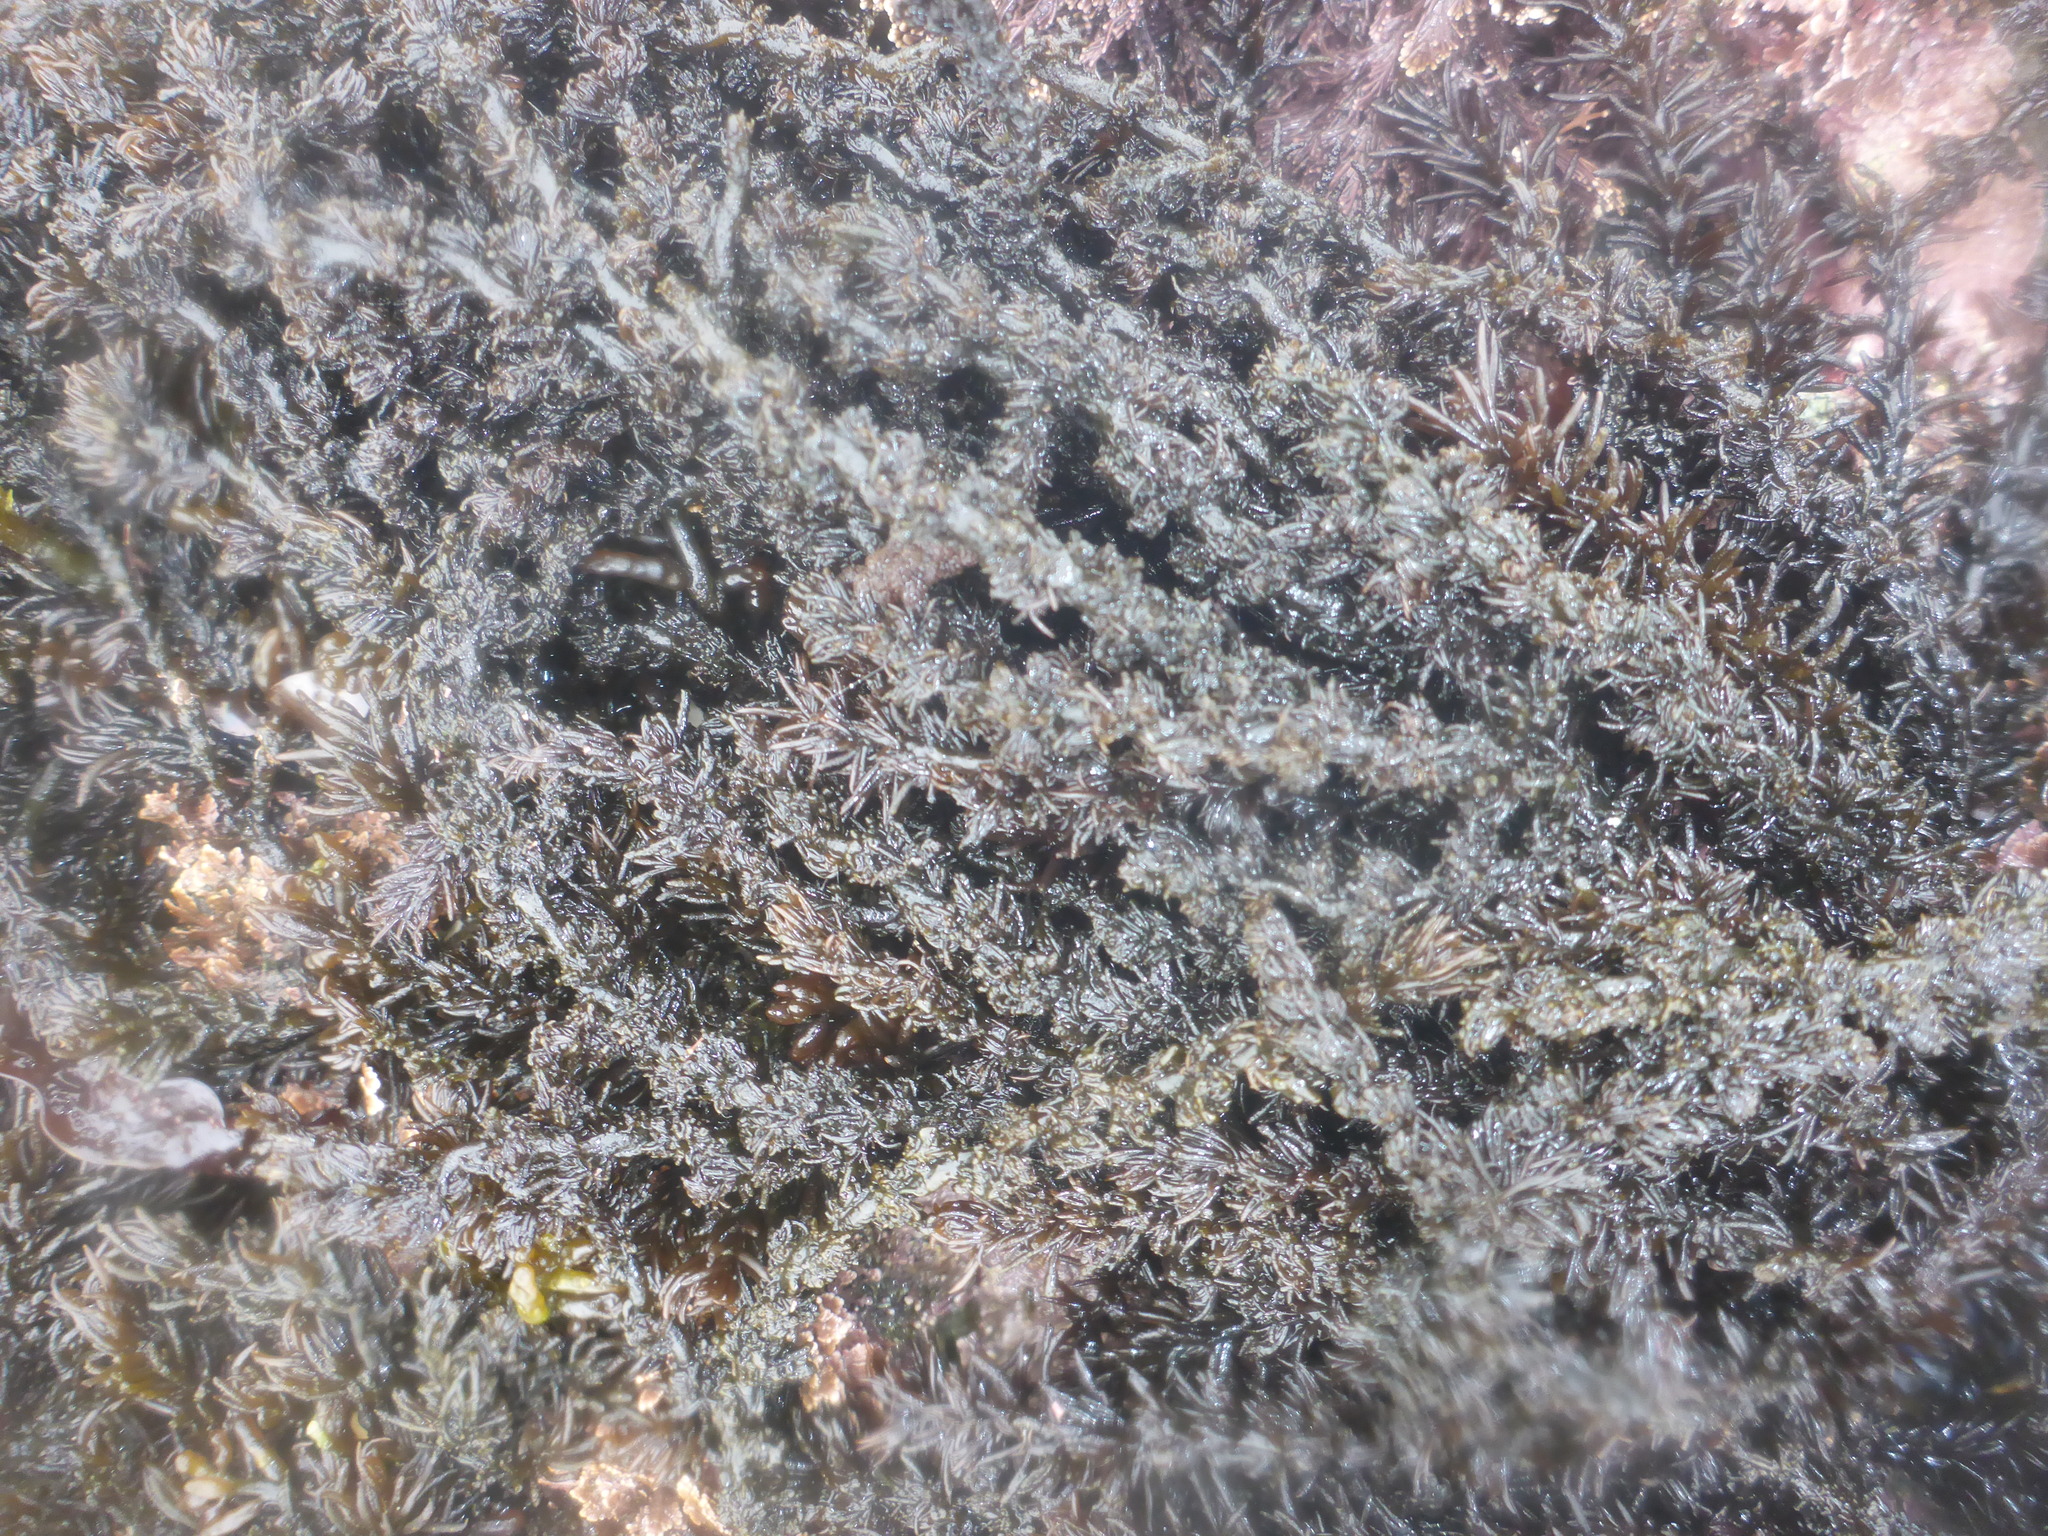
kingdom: Plantae
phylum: Rhodophyta
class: Florideophyceae
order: Ceramiales
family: Rhodomelaceae
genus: Neorhodomela
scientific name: Neorhodomela larix
